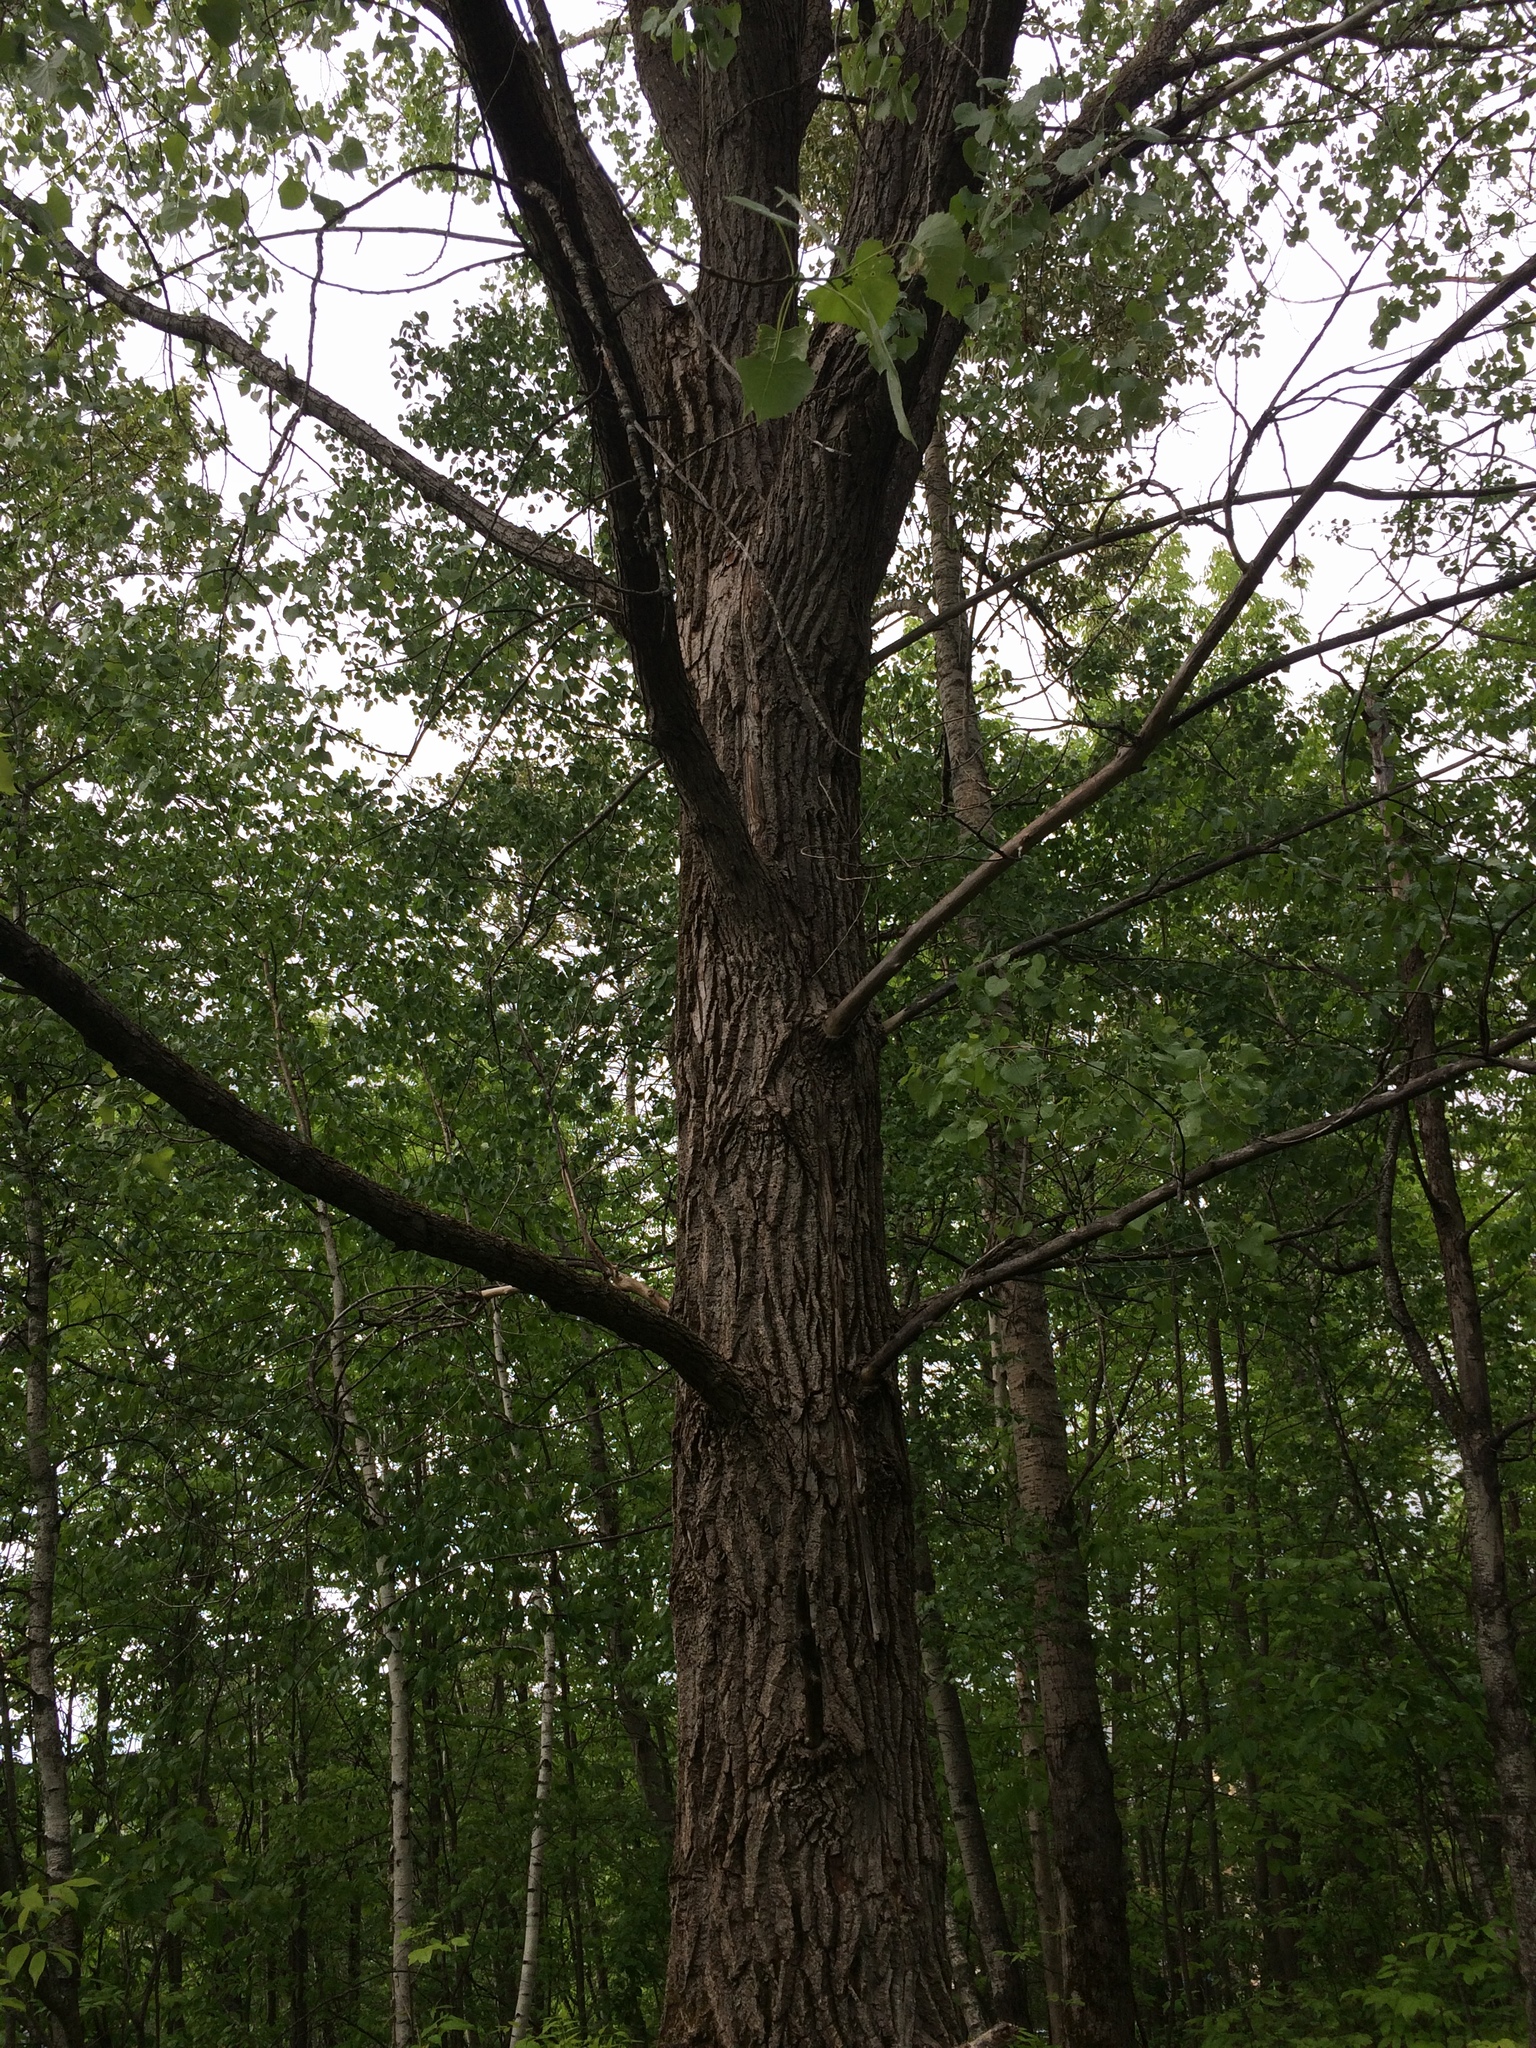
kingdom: Plantae
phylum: Tracheophyta
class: Magnoliopsida
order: Malpighiales
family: Salicaceae
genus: Populus
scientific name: Populus deltoides
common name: Eastern cottonwood
